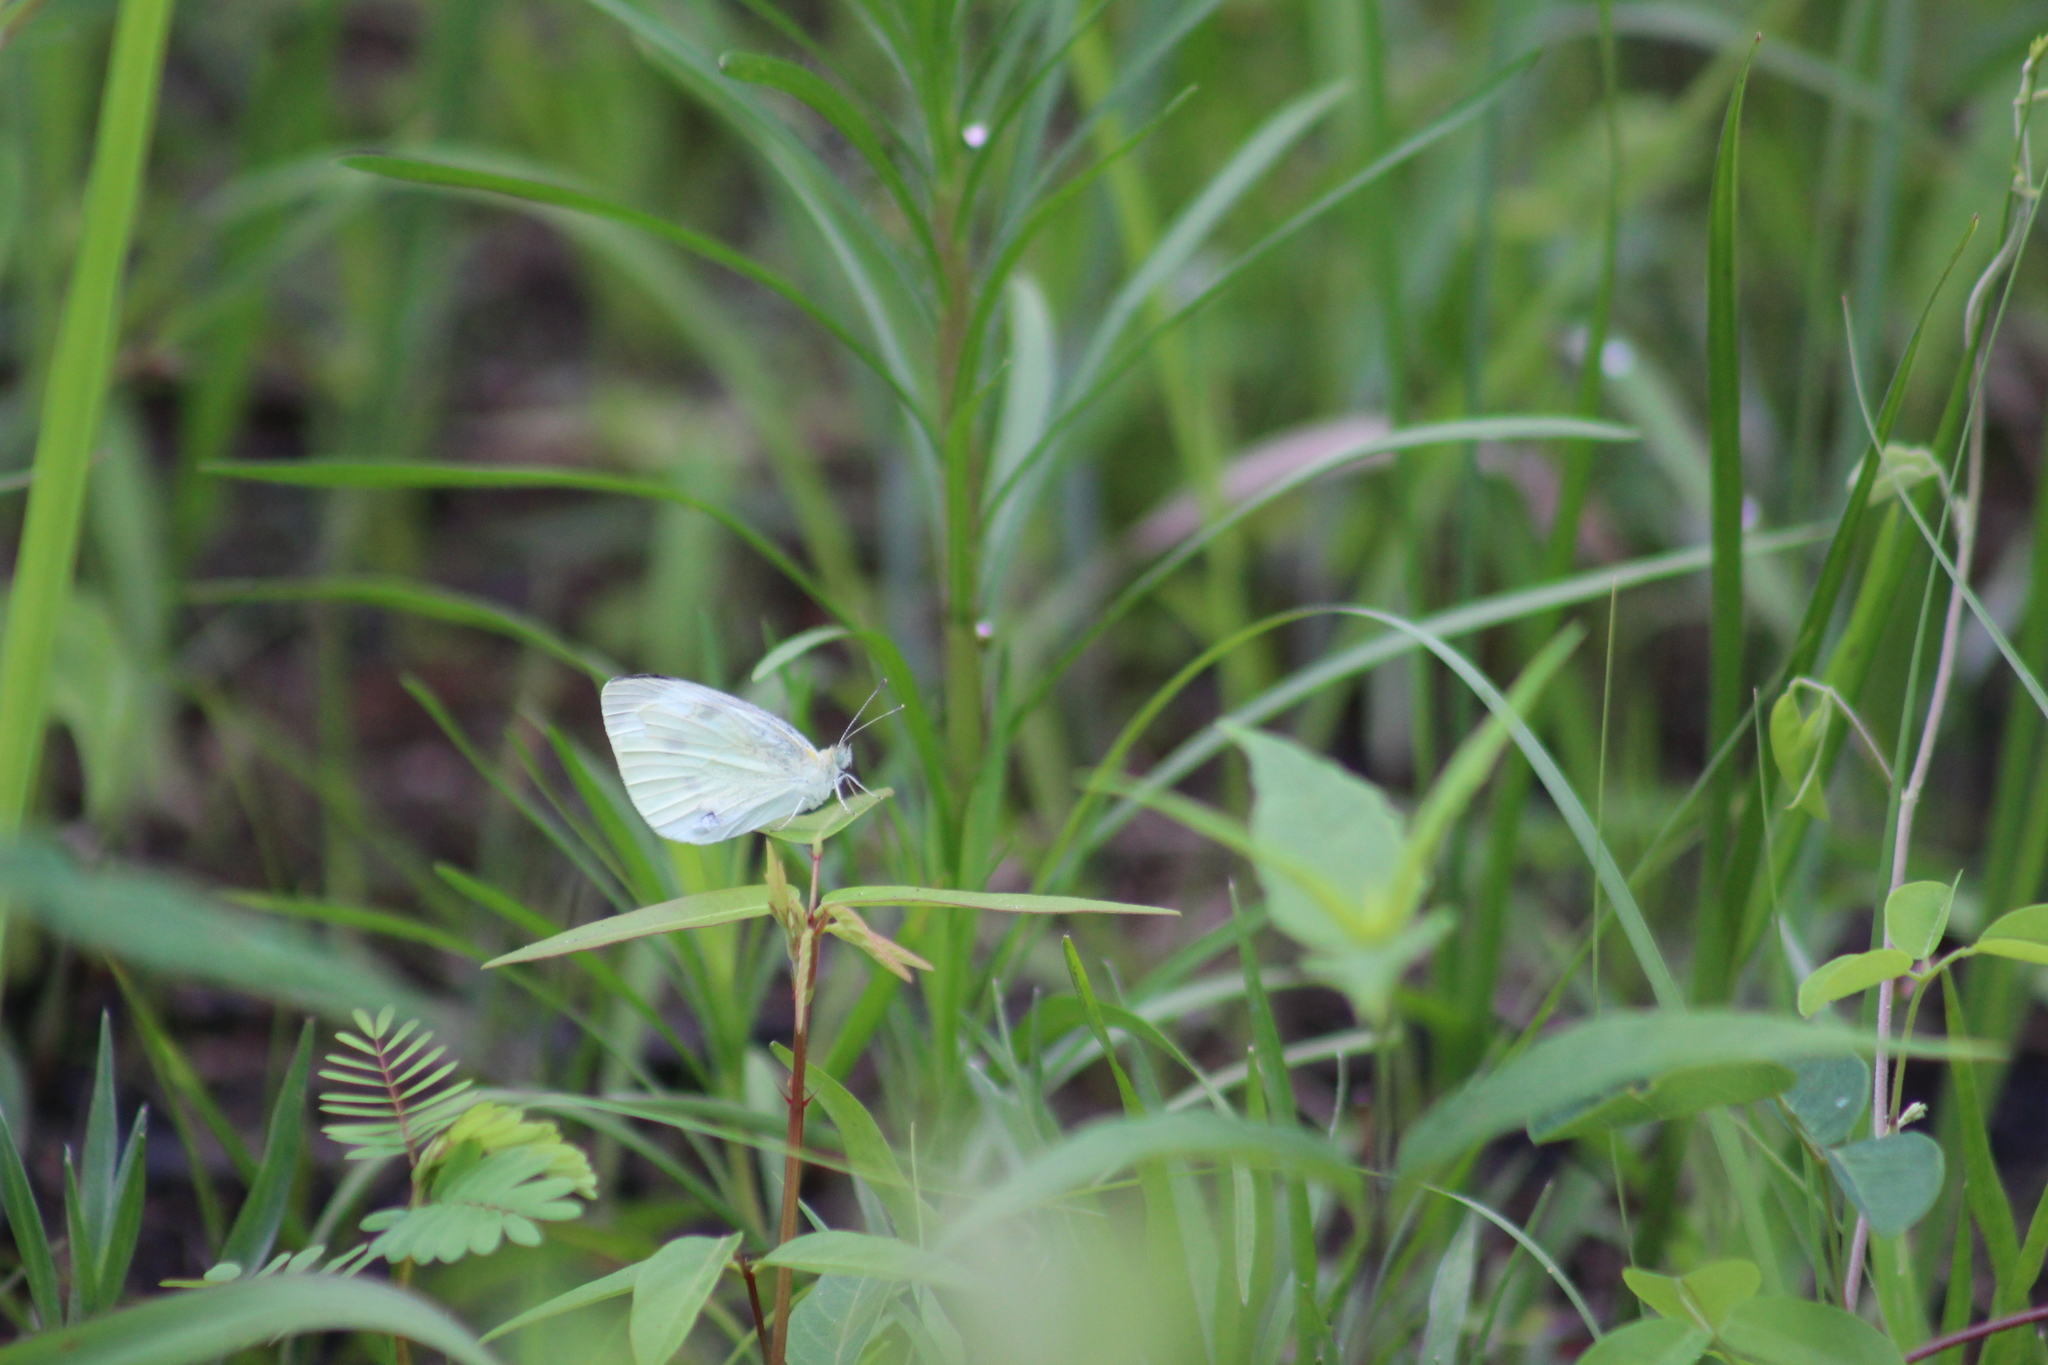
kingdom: Animalia
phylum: Arthropoda
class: Insecta
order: Lepidoptera
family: Pieridae
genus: Pieris
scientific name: Pieris rapae
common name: Small white
